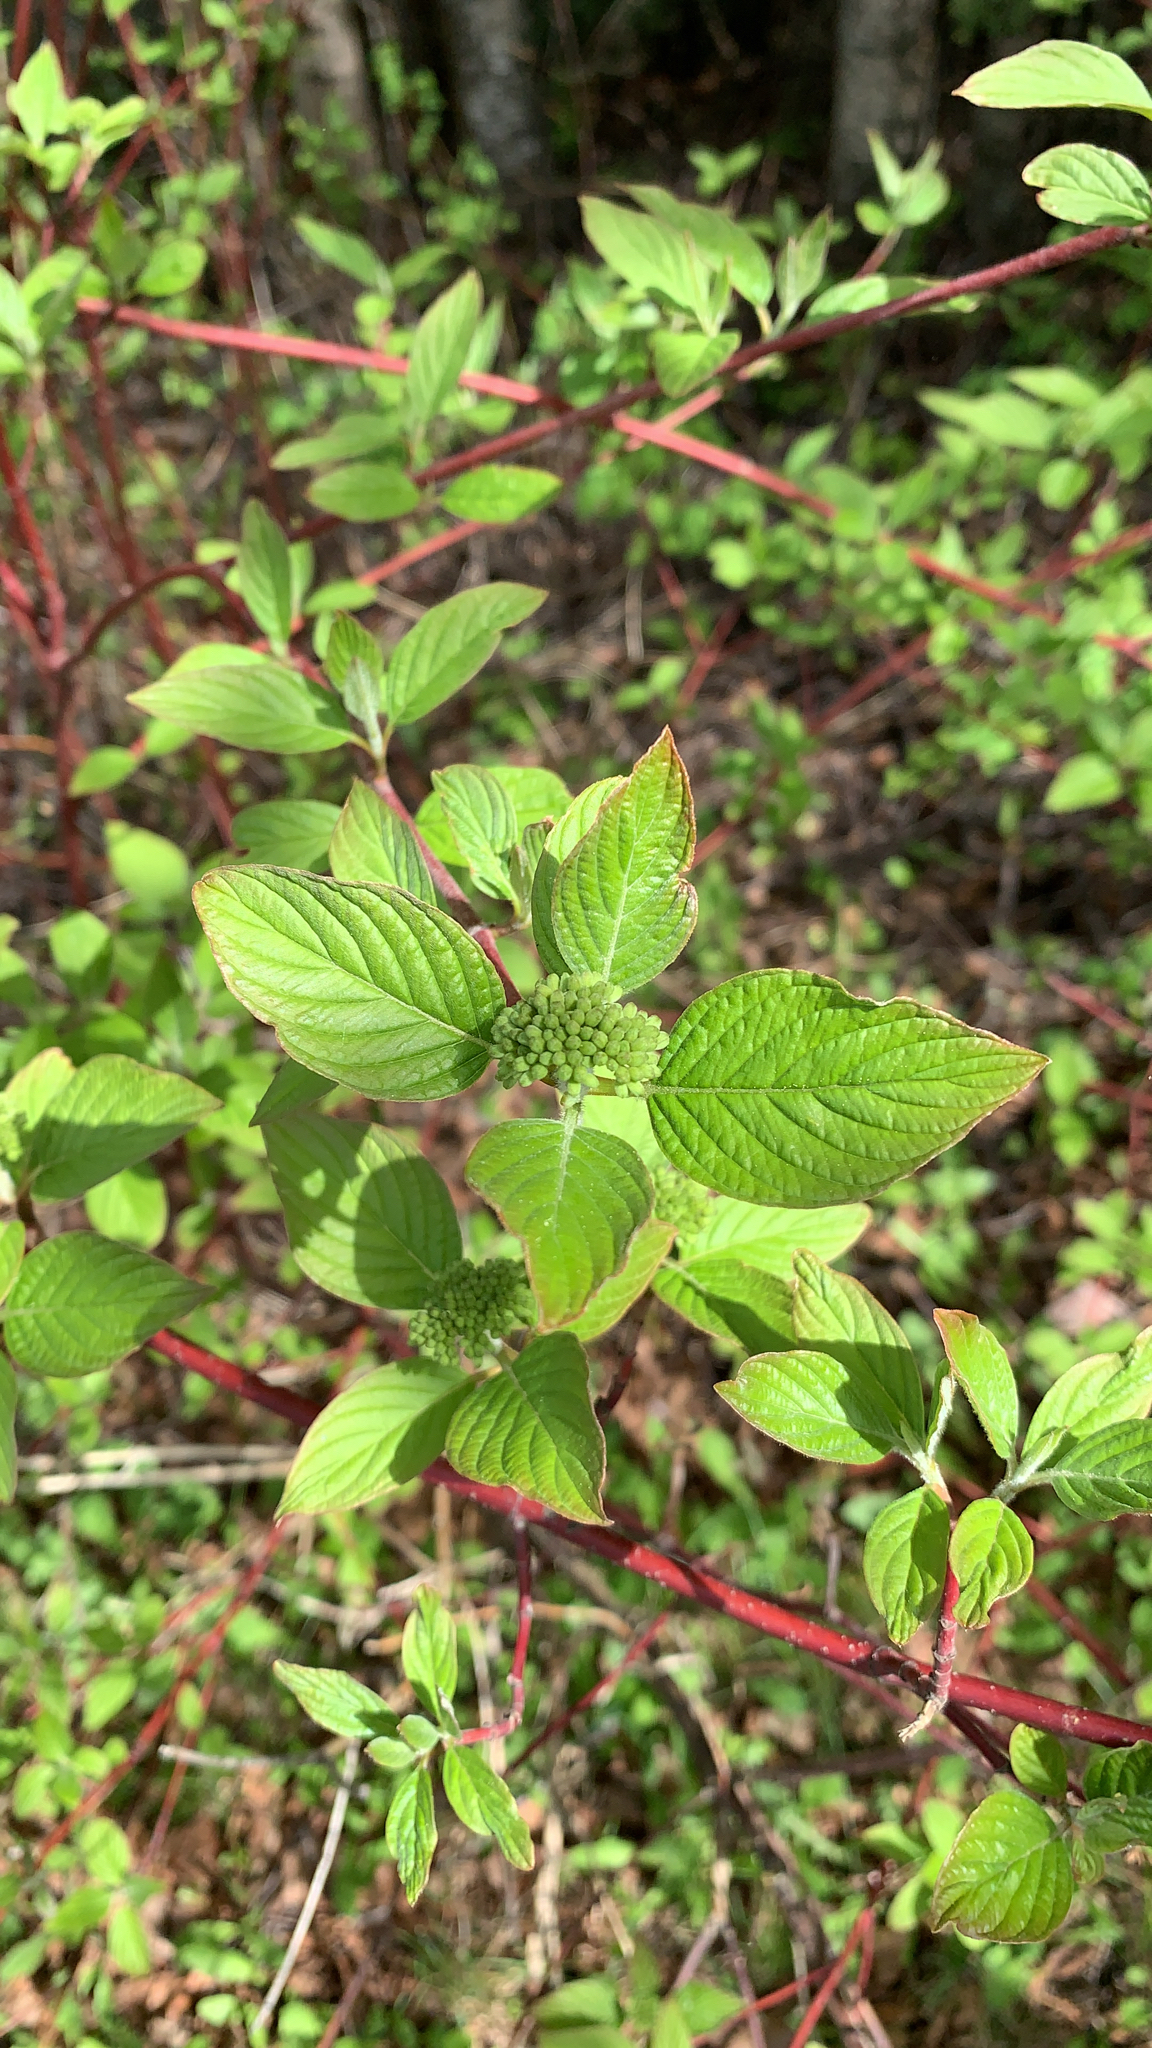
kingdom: Plantae
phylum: Tracheophyta
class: Magnoliopsida
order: Cornales
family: Cornaceae
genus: Cornus
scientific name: Cornus sericea
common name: Red-osier dogwood
